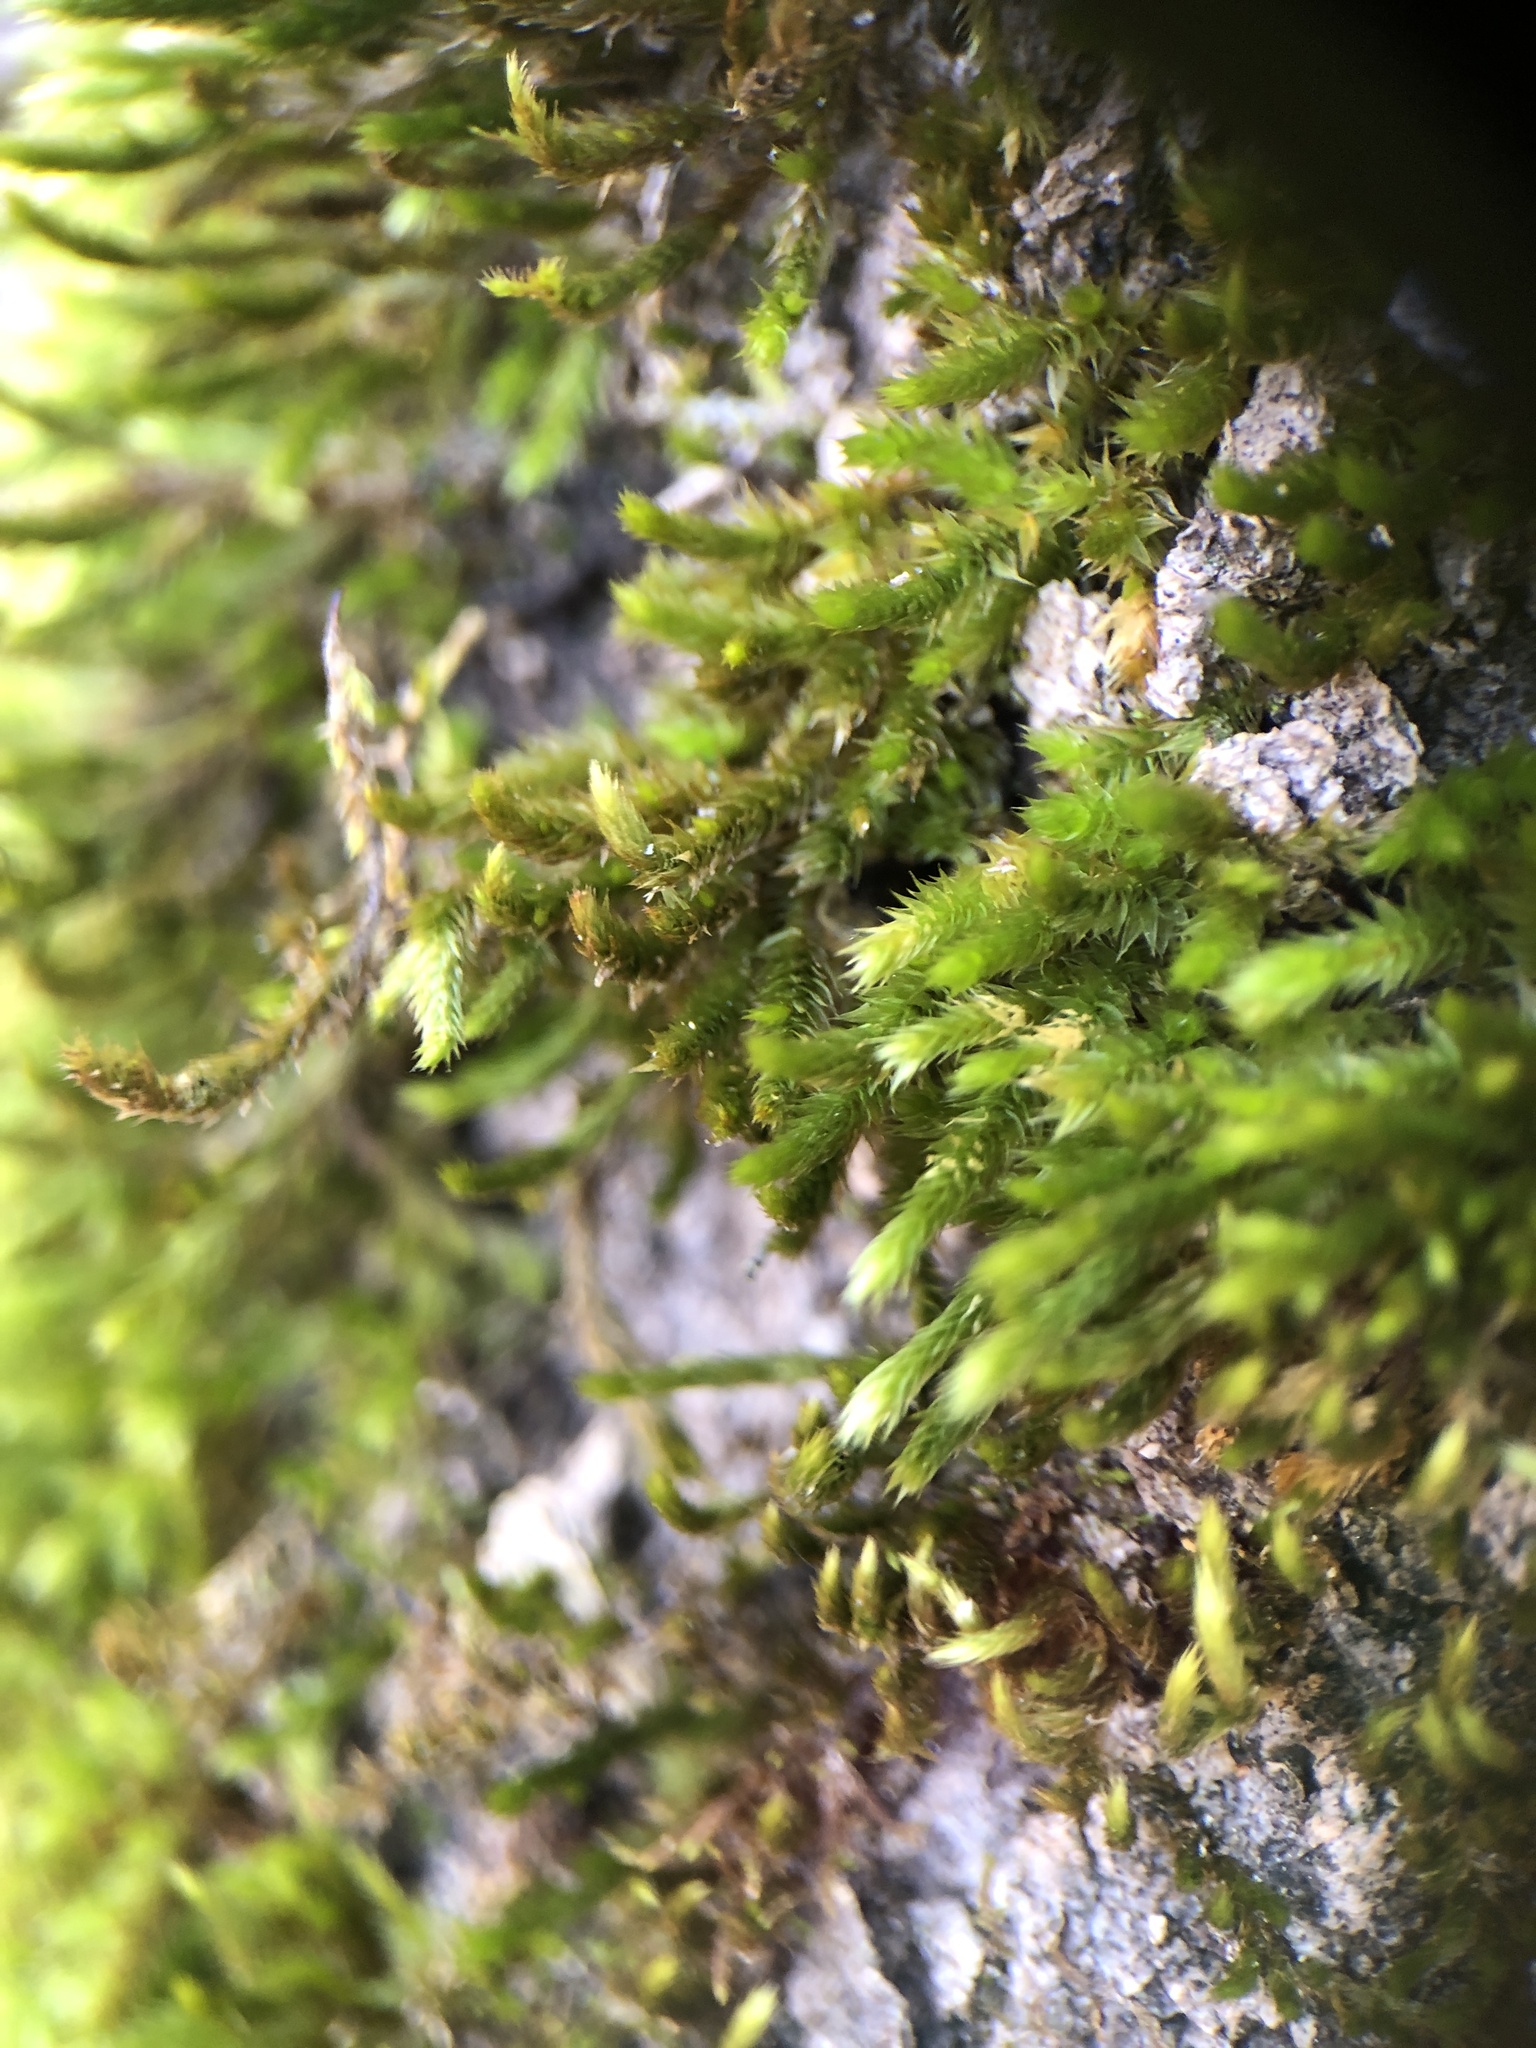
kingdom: Plantae
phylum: Bryophyta
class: Bryopsida
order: Hypnales
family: Leucodontaceae
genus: Leucodon
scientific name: Leucodon sciuroides
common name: Squirrel-tail moss
